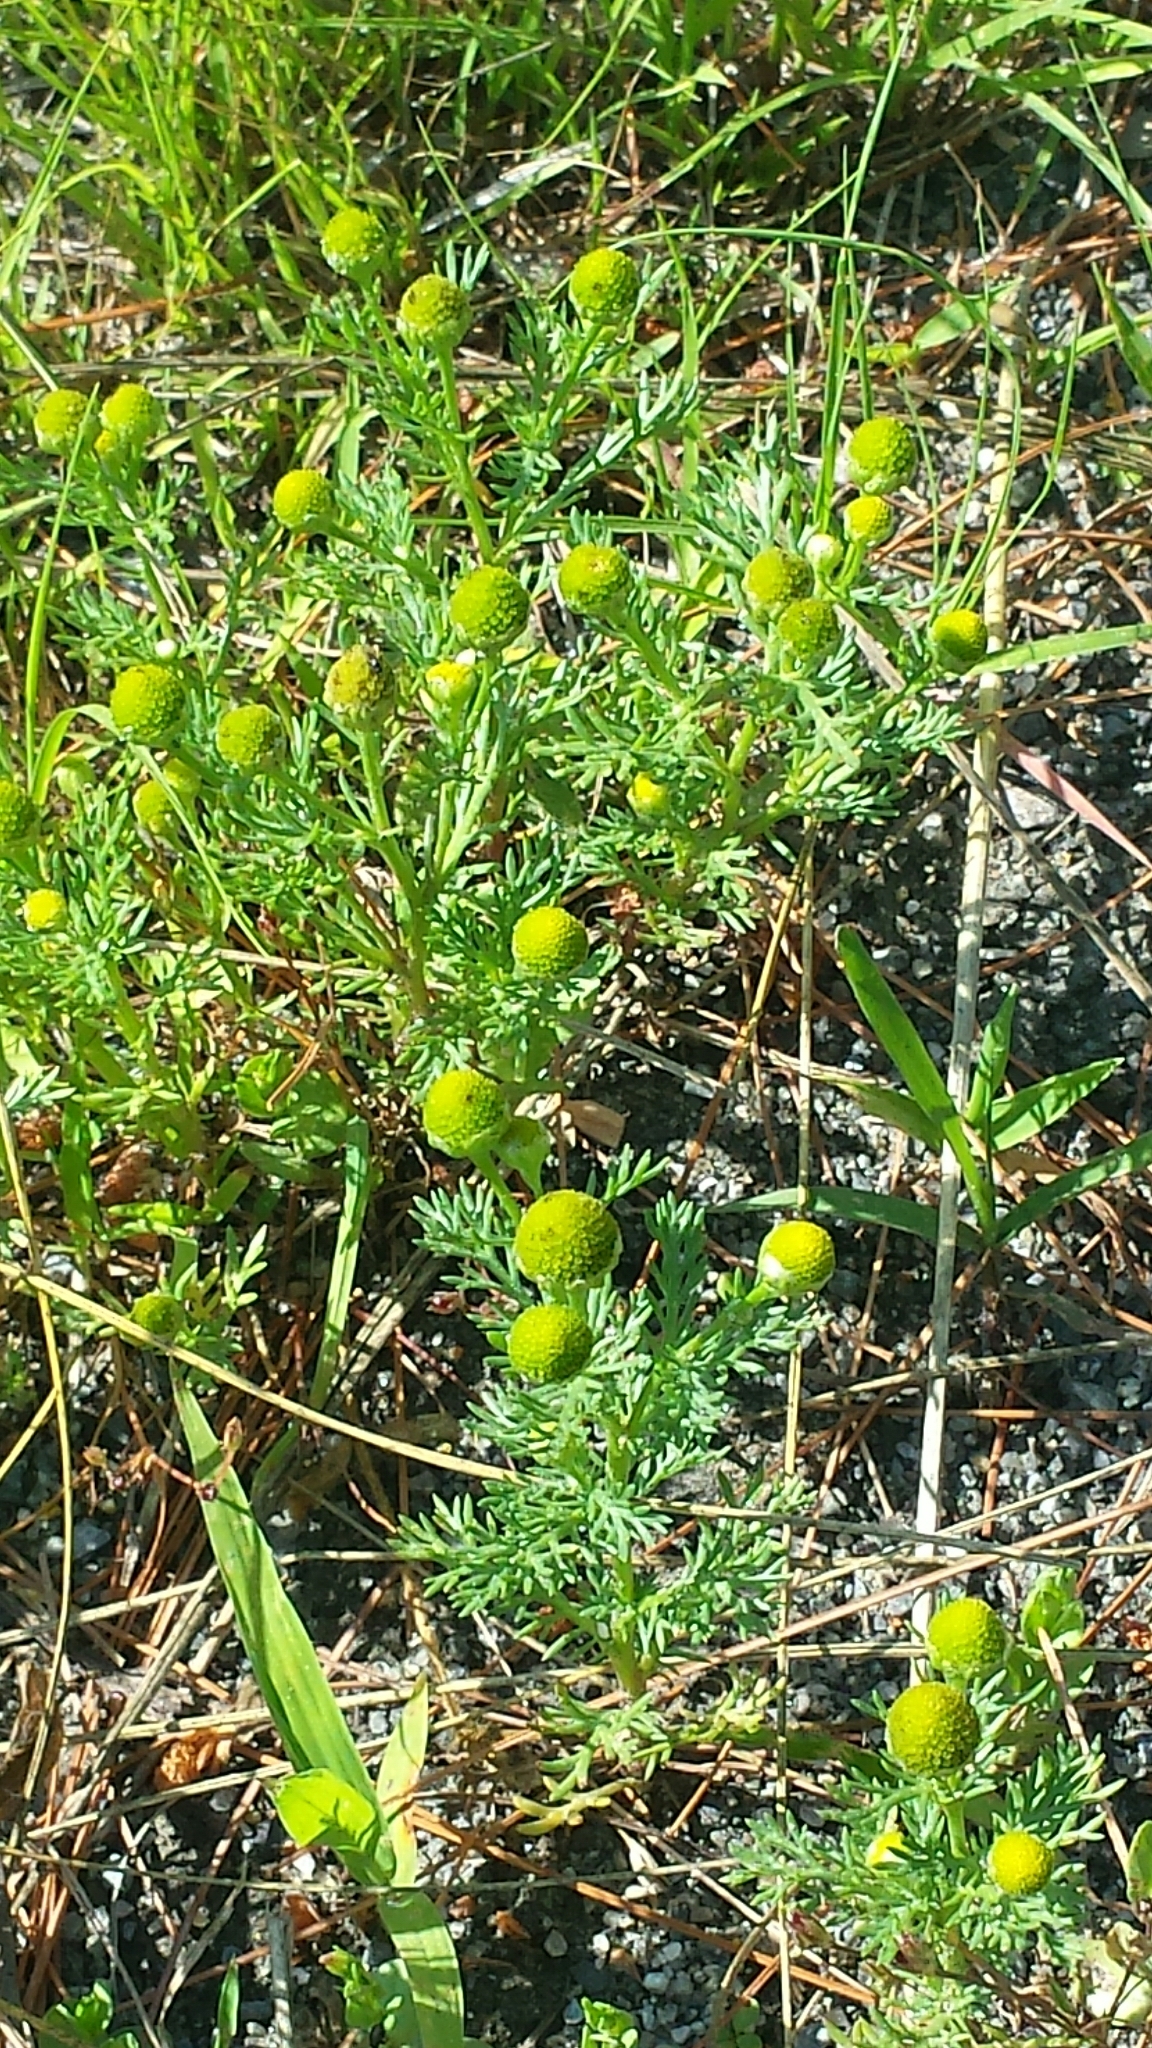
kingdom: Plantae
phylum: Tracheophyta
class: Magnoliopsida
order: Asterales
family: Asteraceae
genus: Matricaria
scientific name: Matricaria discoidea
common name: Disc mayweed
